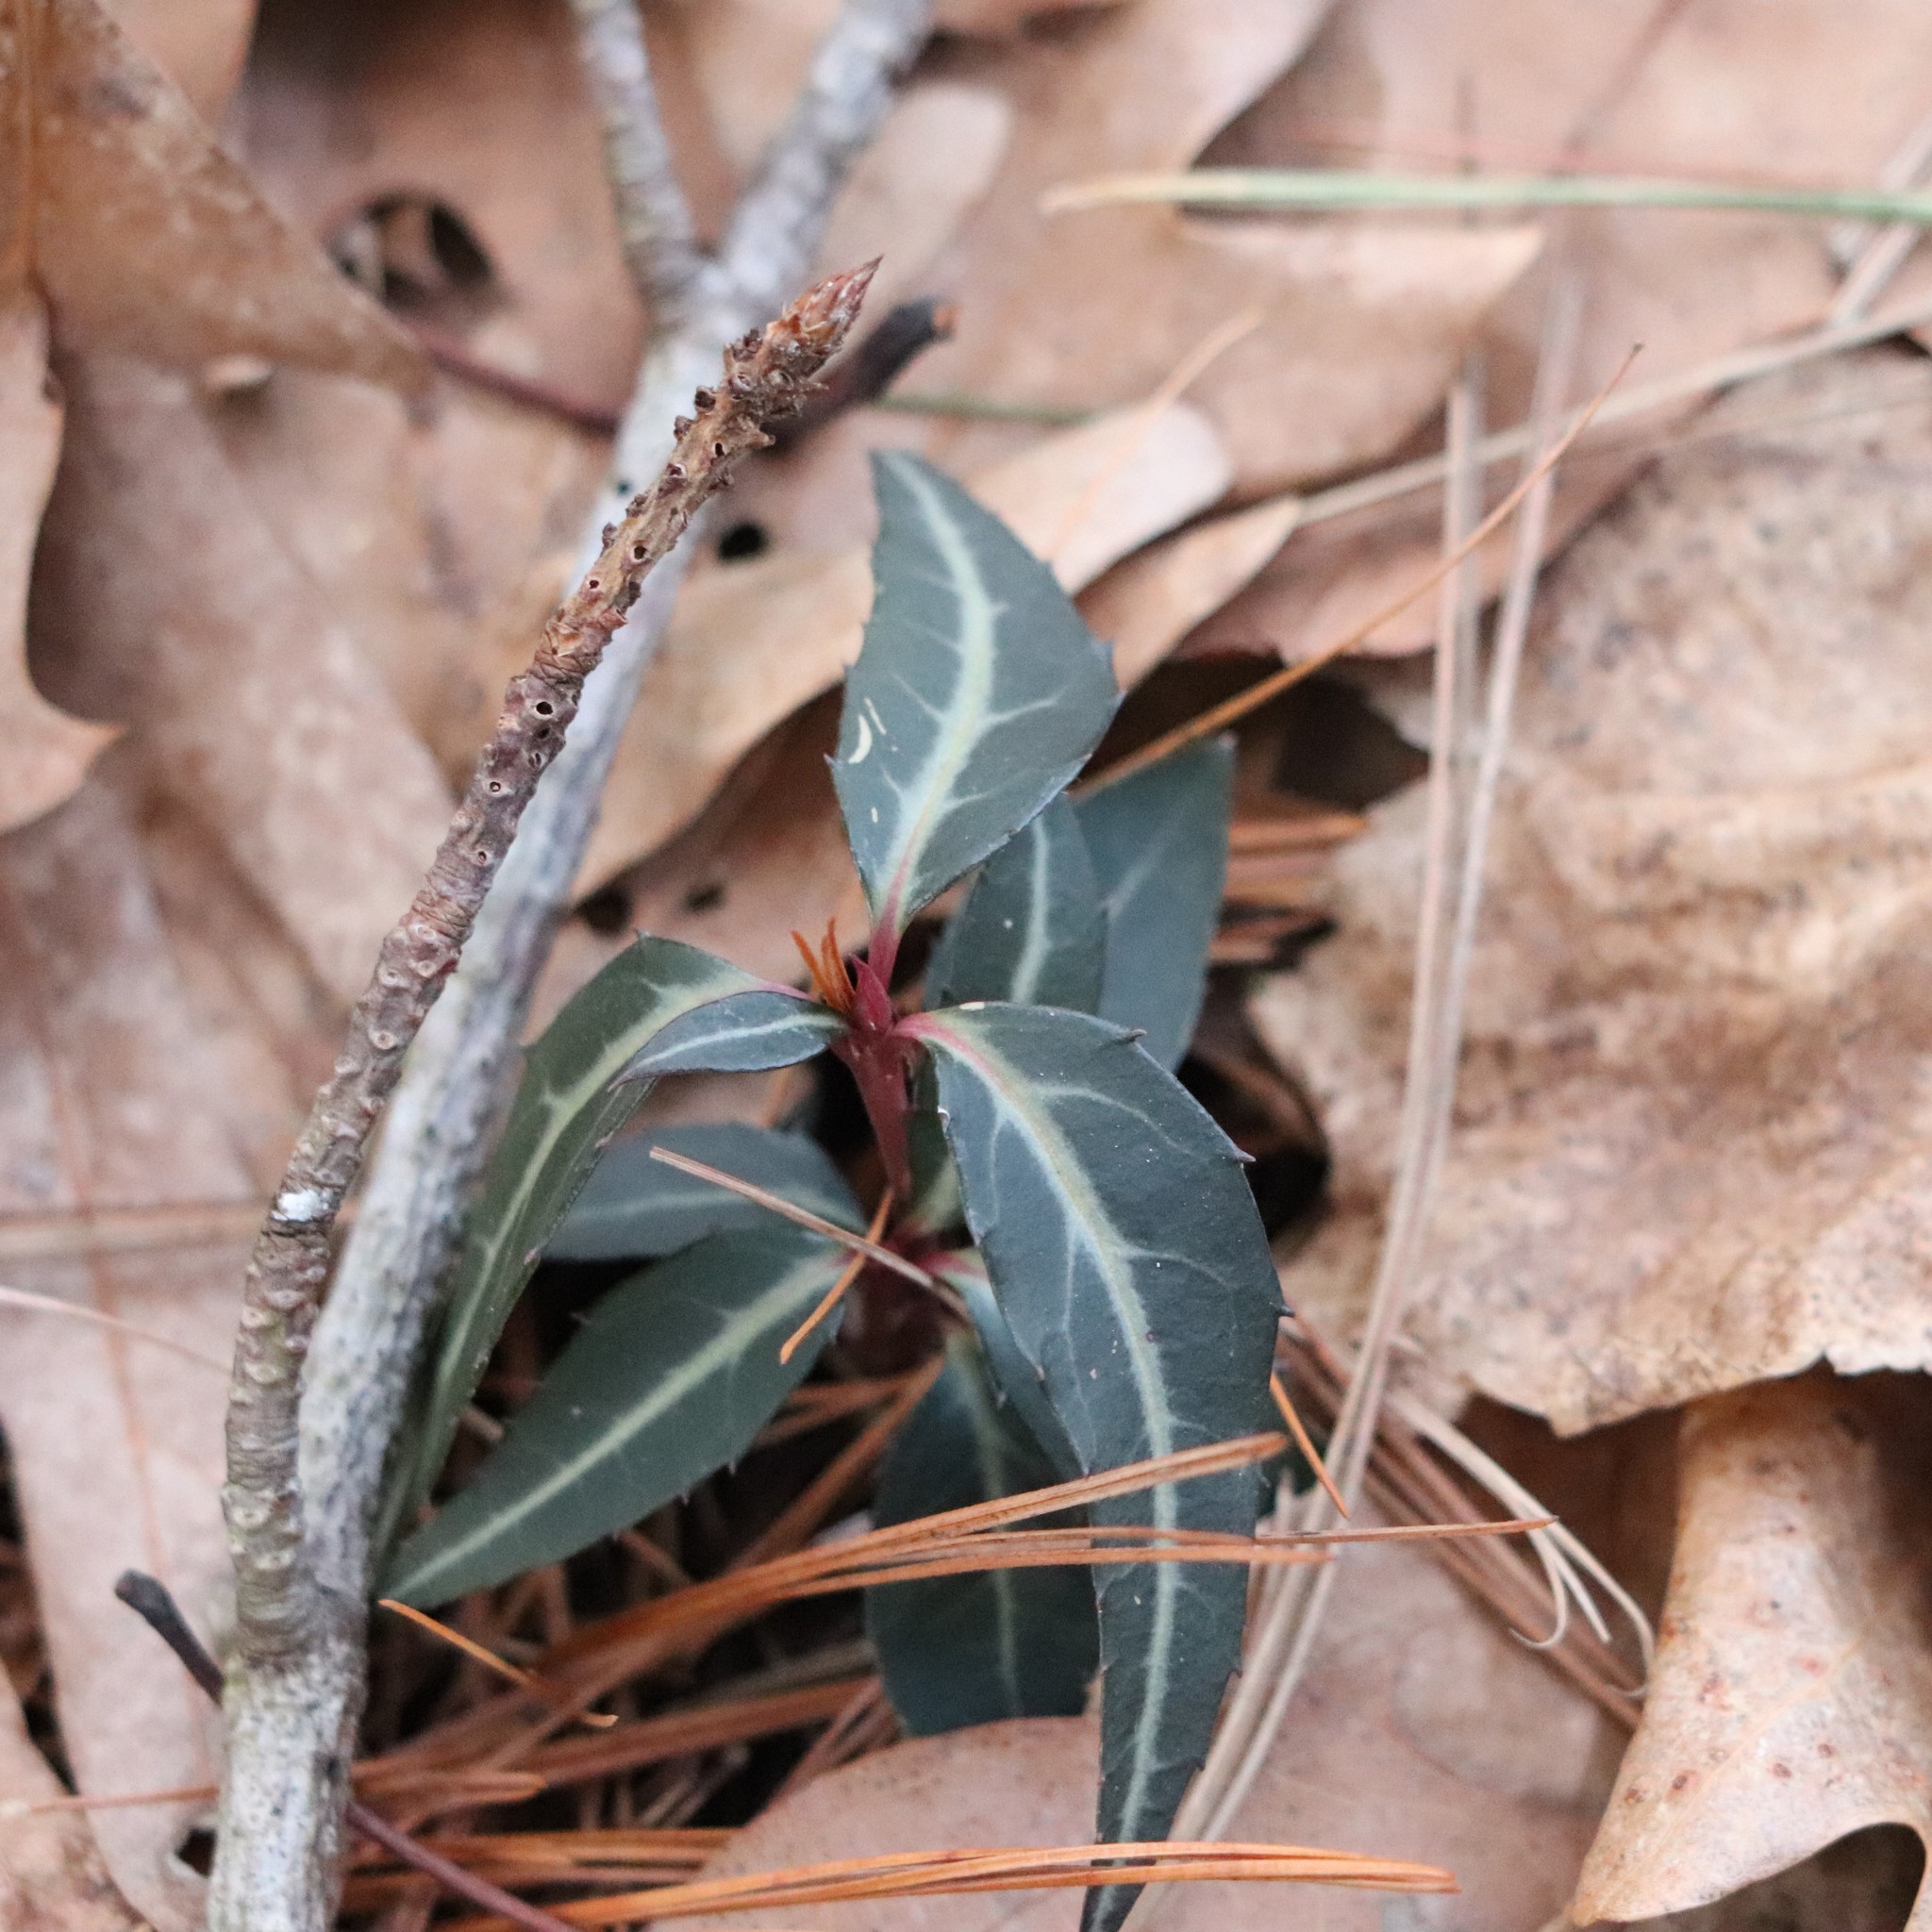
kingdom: Plantae
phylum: Tracheophyta
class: Magnoliopsida
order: Ericales
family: Ericaceae
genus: Chimaphila
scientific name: Chimaphila maculata
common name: Spotted pipsissewa
